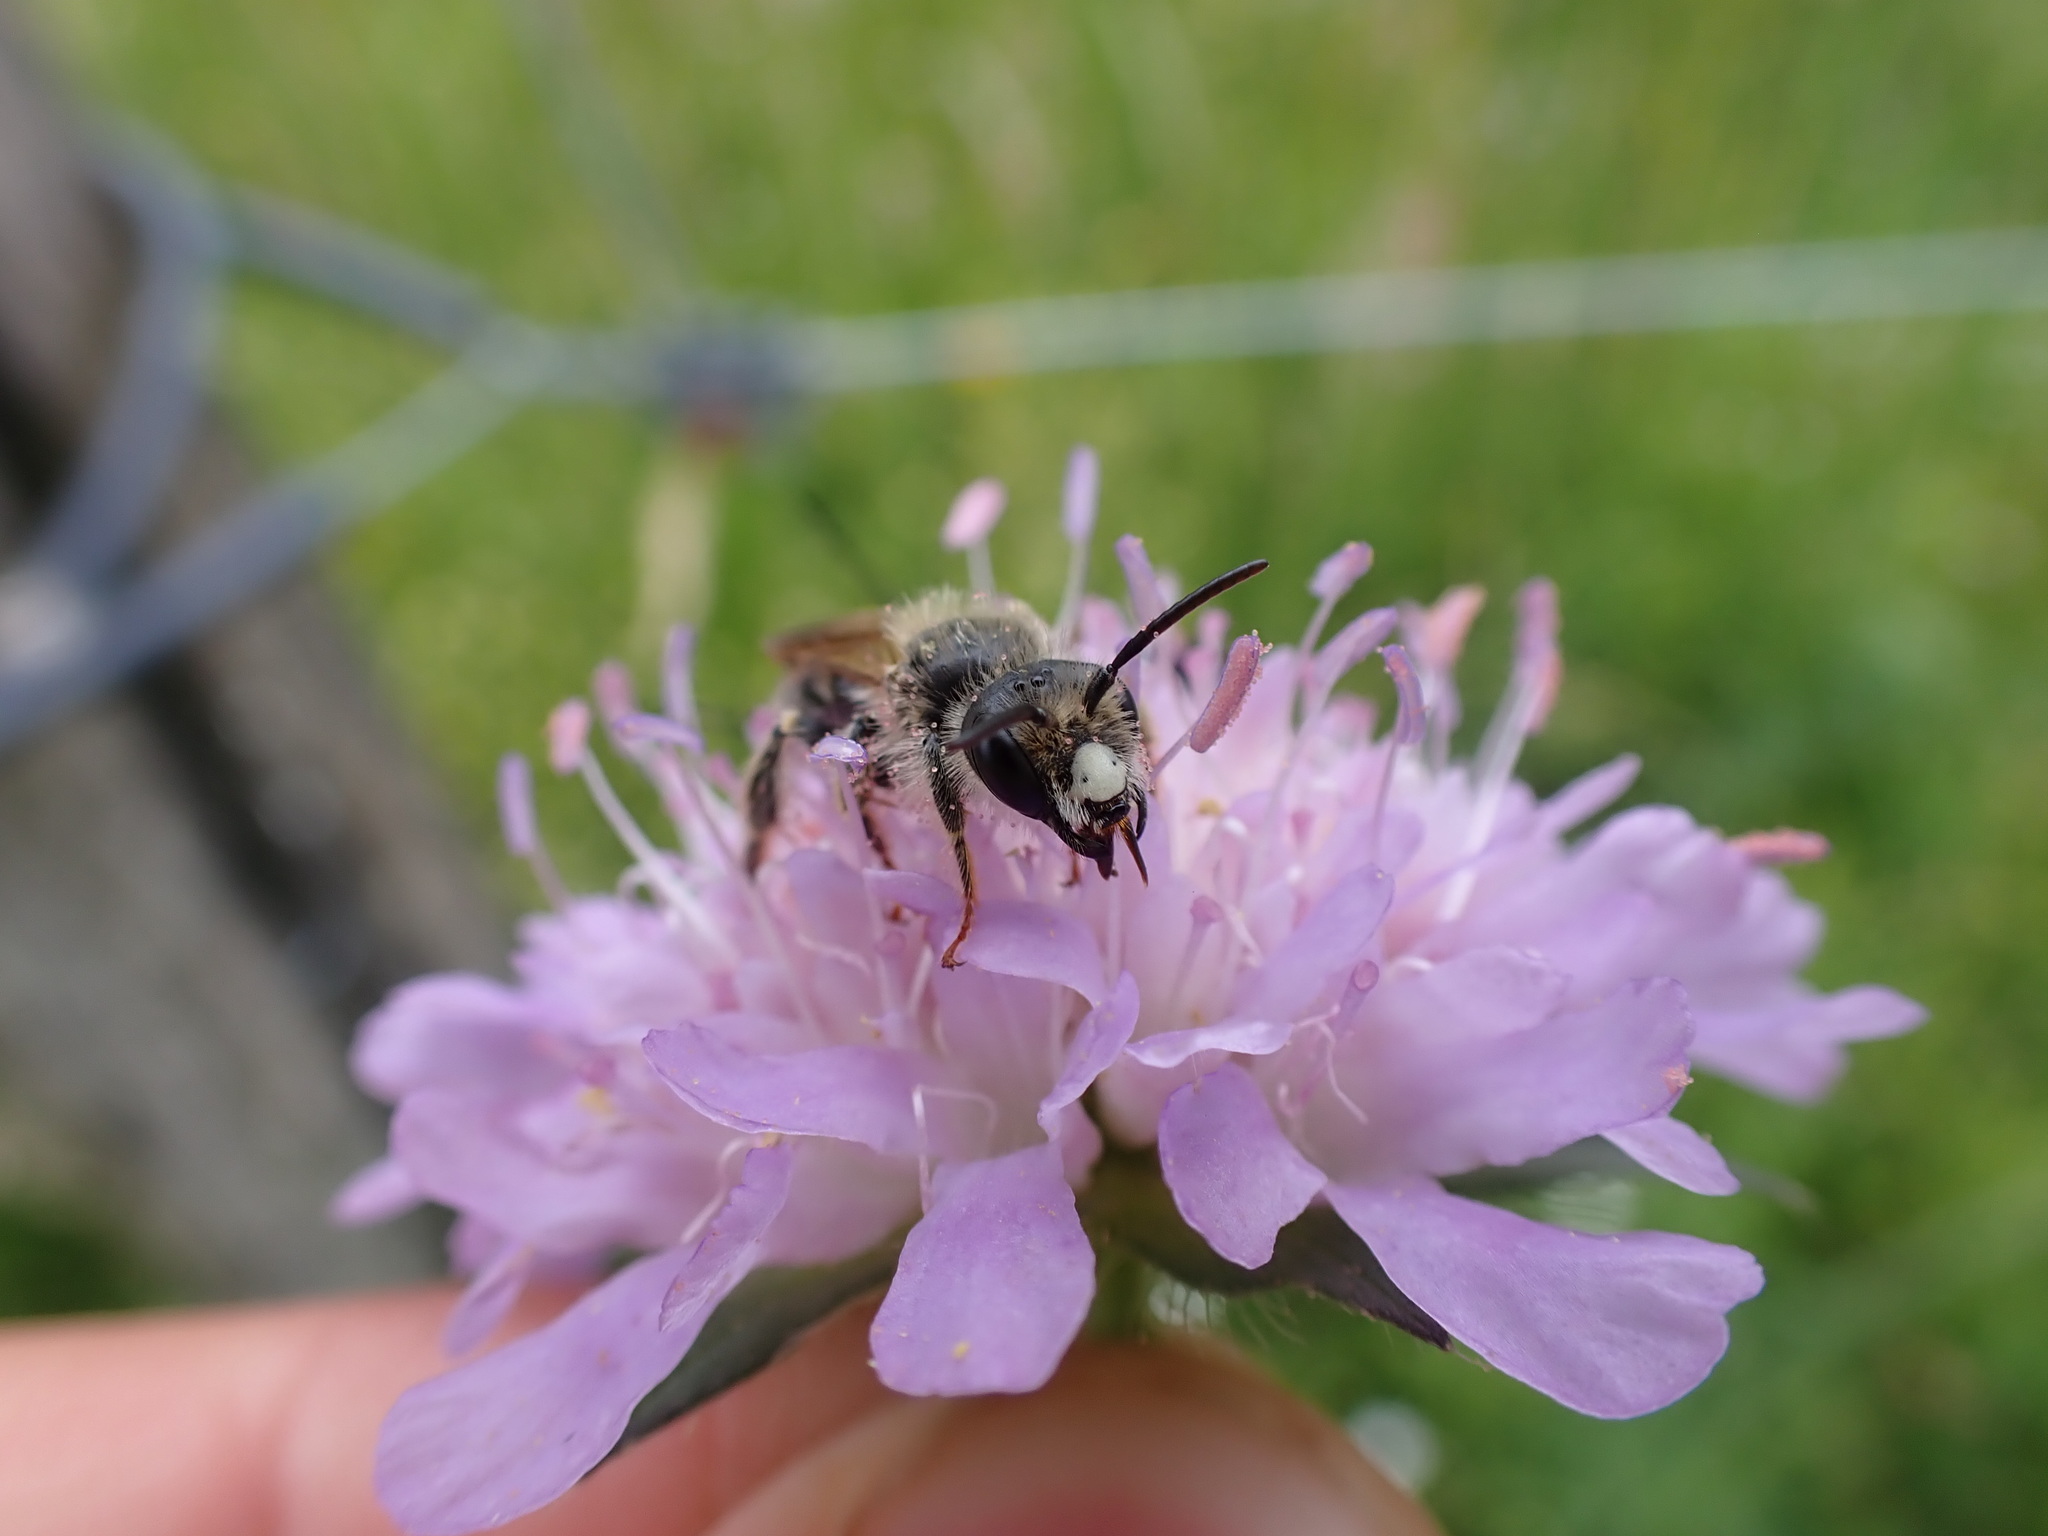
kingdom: Animalia
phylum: Arthropoda
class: Insecta
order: Hymenoptera
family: Andrenidae
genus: Andrena
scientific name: Andrena hattorfiana
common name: Large scabious mining bee
